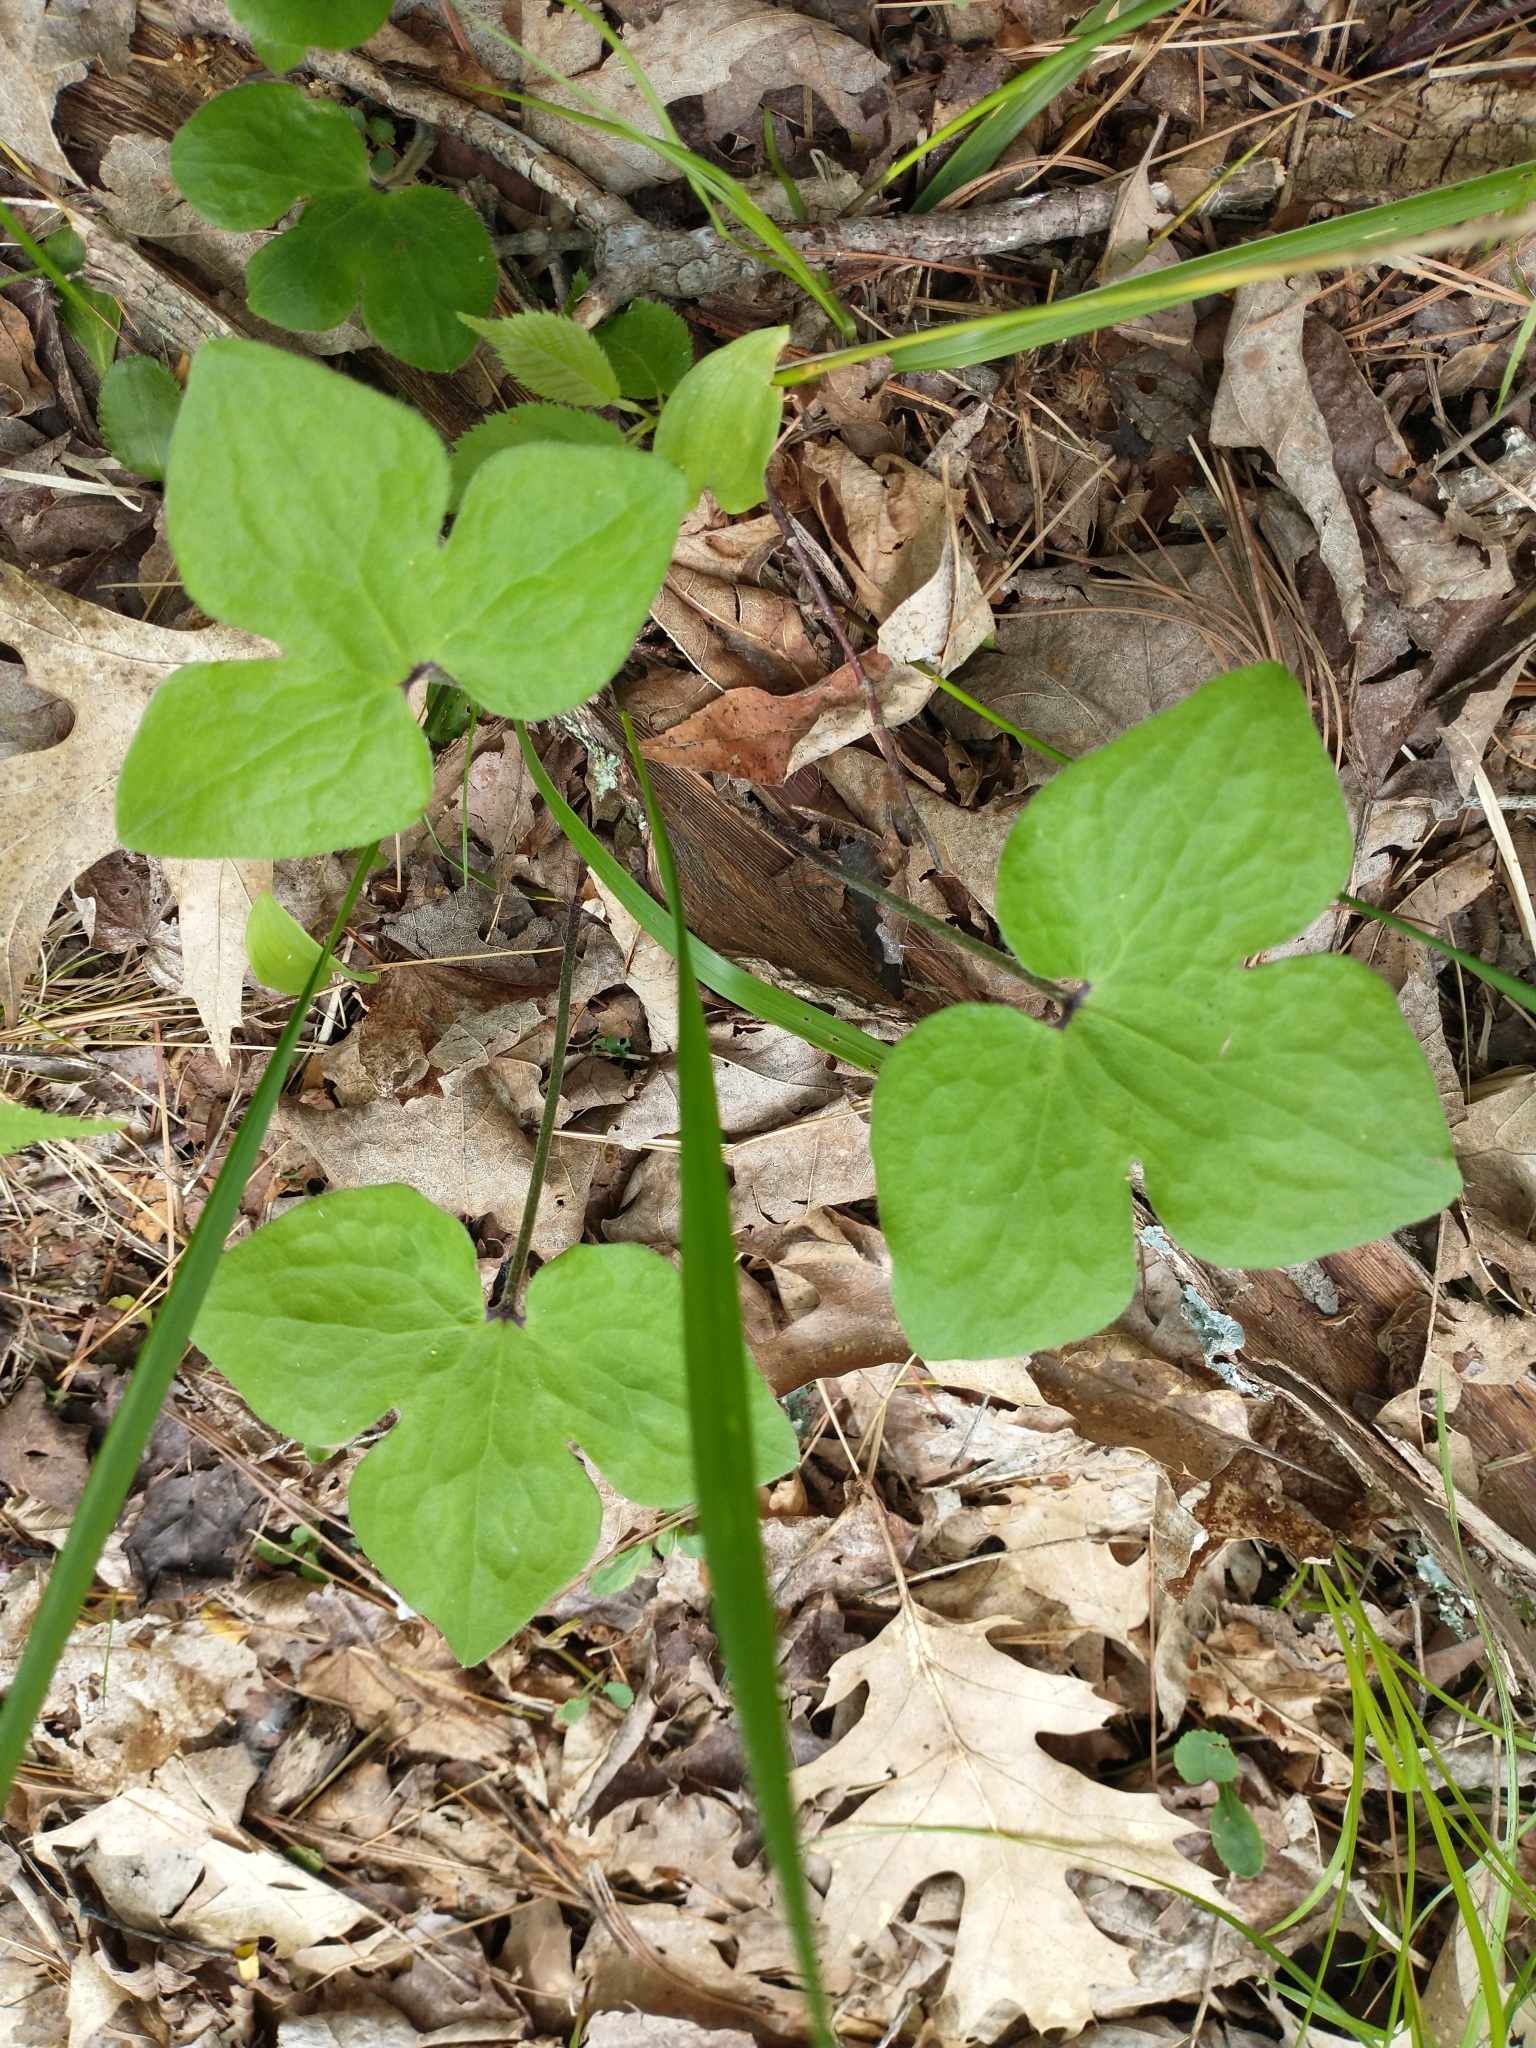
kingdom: Plantae
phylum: Tracheophyta
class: Magnoliopsida
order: Ranunculales
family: Ranunculaceae
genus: Hepatica
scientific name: Hepatica acutiloba
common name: Sharp-lobed hepatica
